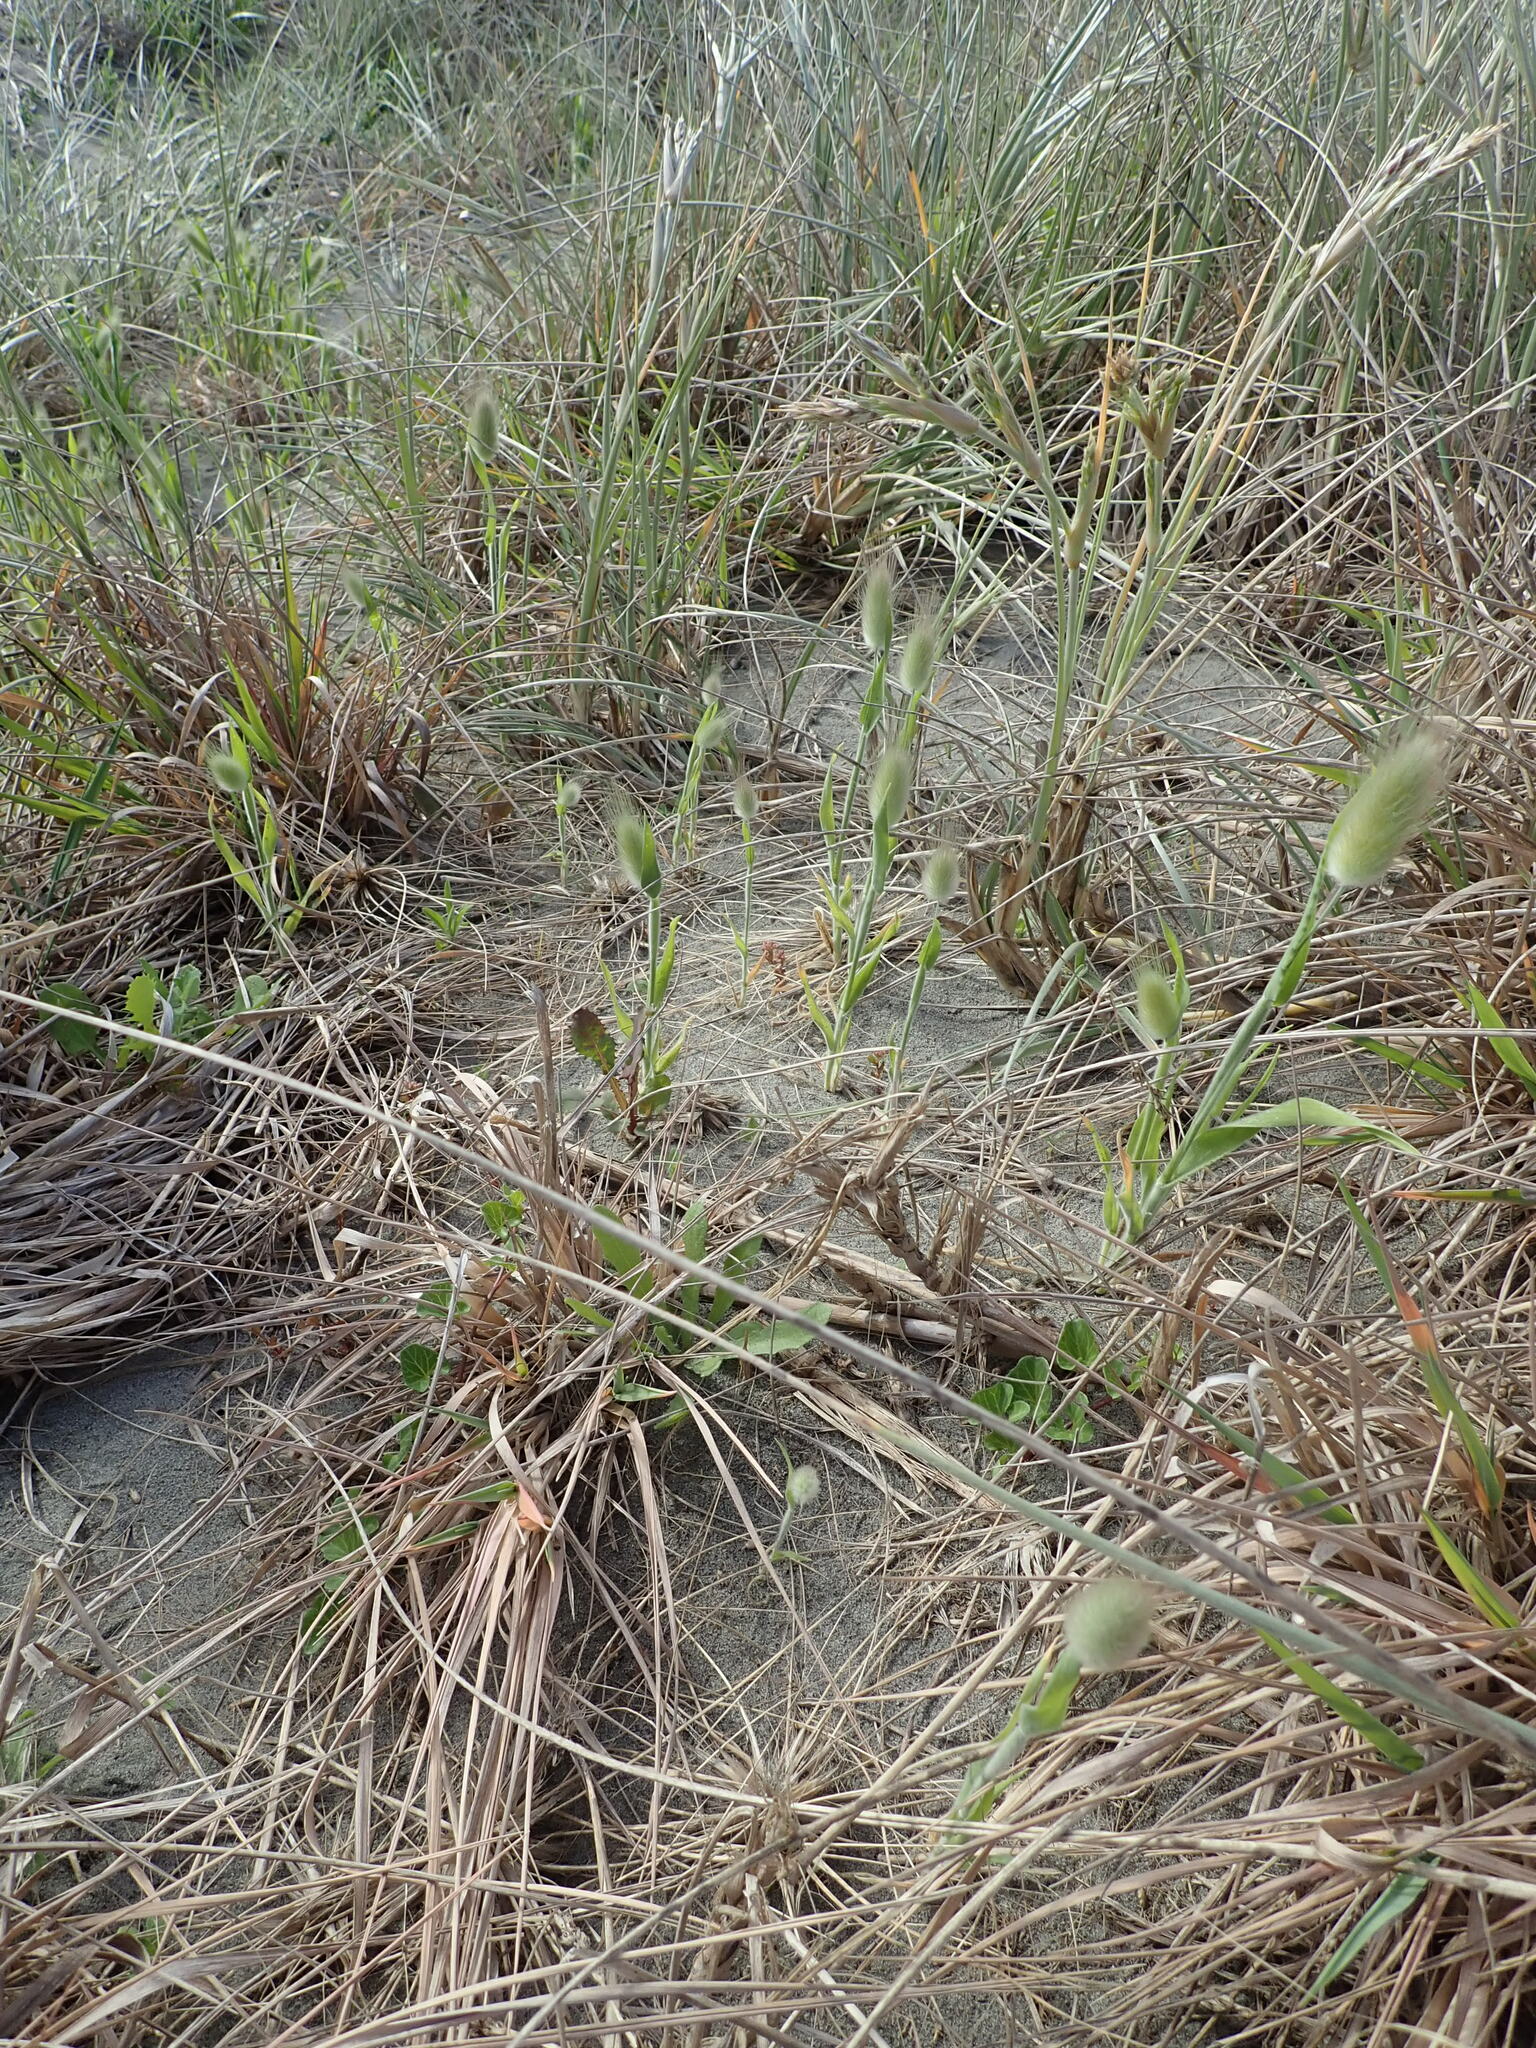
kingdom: Plantae
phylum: Tracheophyta
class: Liliopsida
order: Poales
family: Poaceae
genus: Lagurus
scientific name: Lagurus ovatus
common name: Hare's-tail
